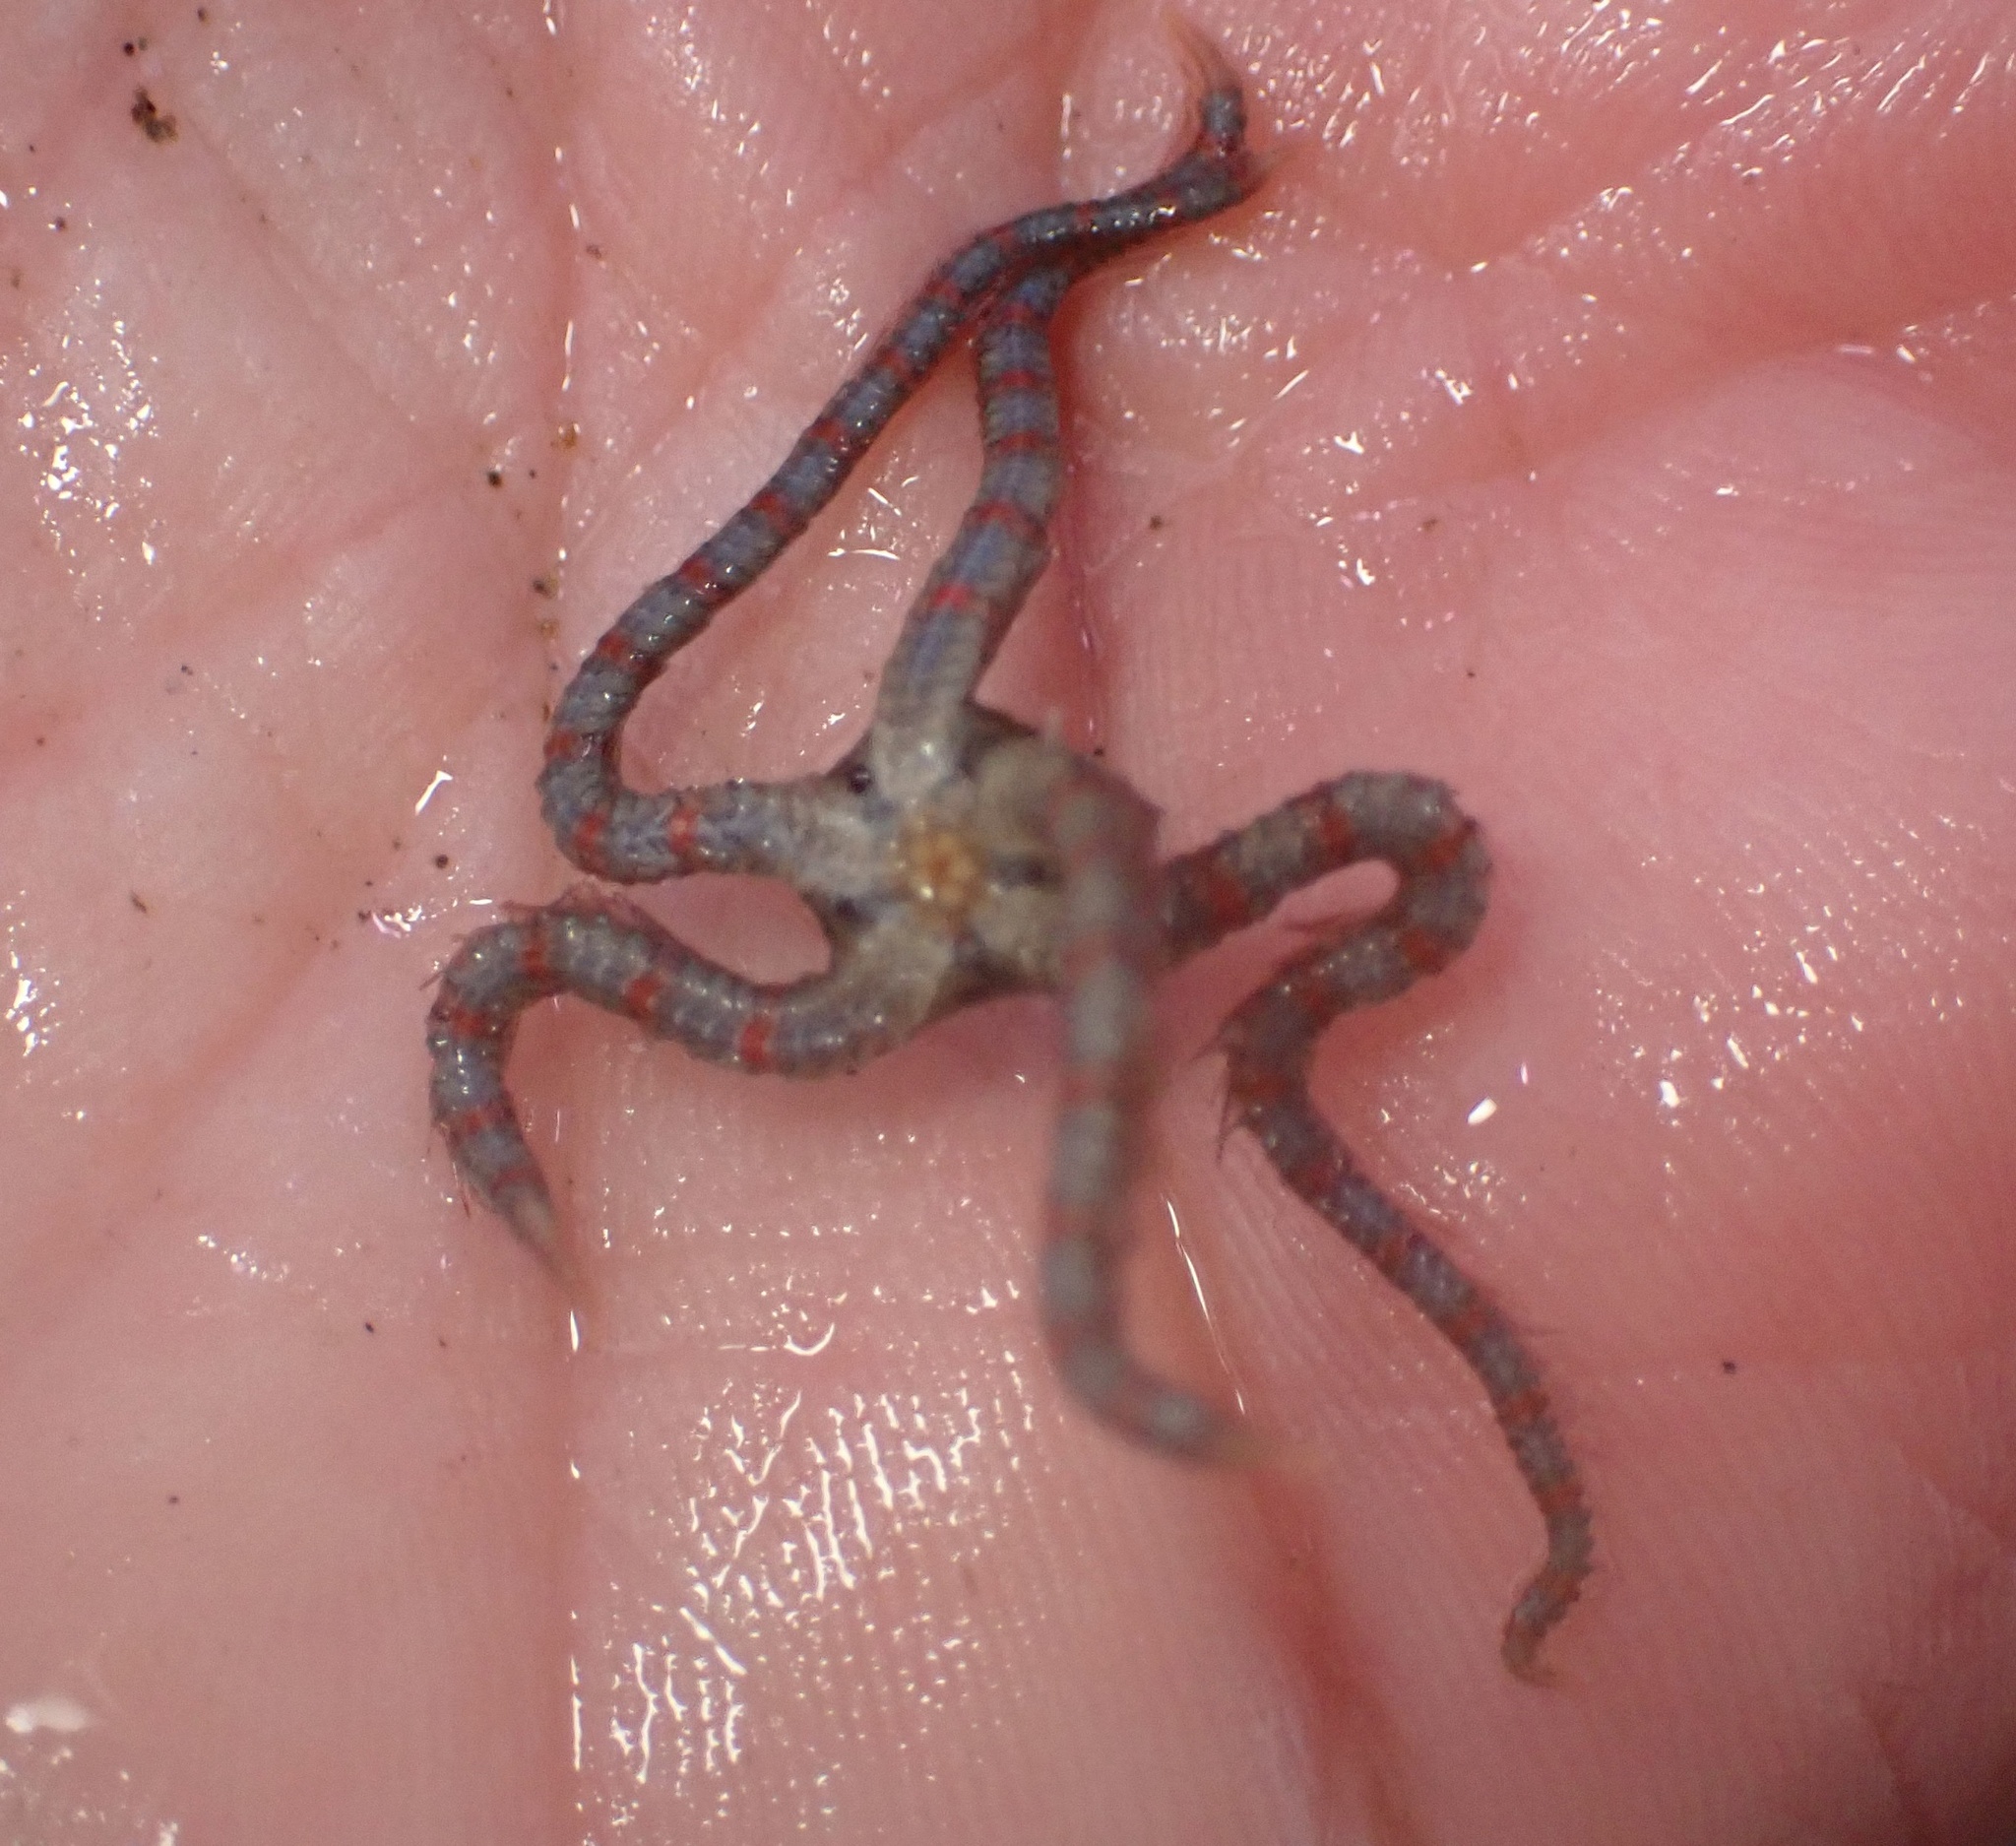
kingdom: Animalia
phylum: Echinodermata
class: Ophiuroidea
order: Amphilepidida
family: Ophiotrichidae
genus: Ophiothrix
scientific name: Ophiothrix spiculata
